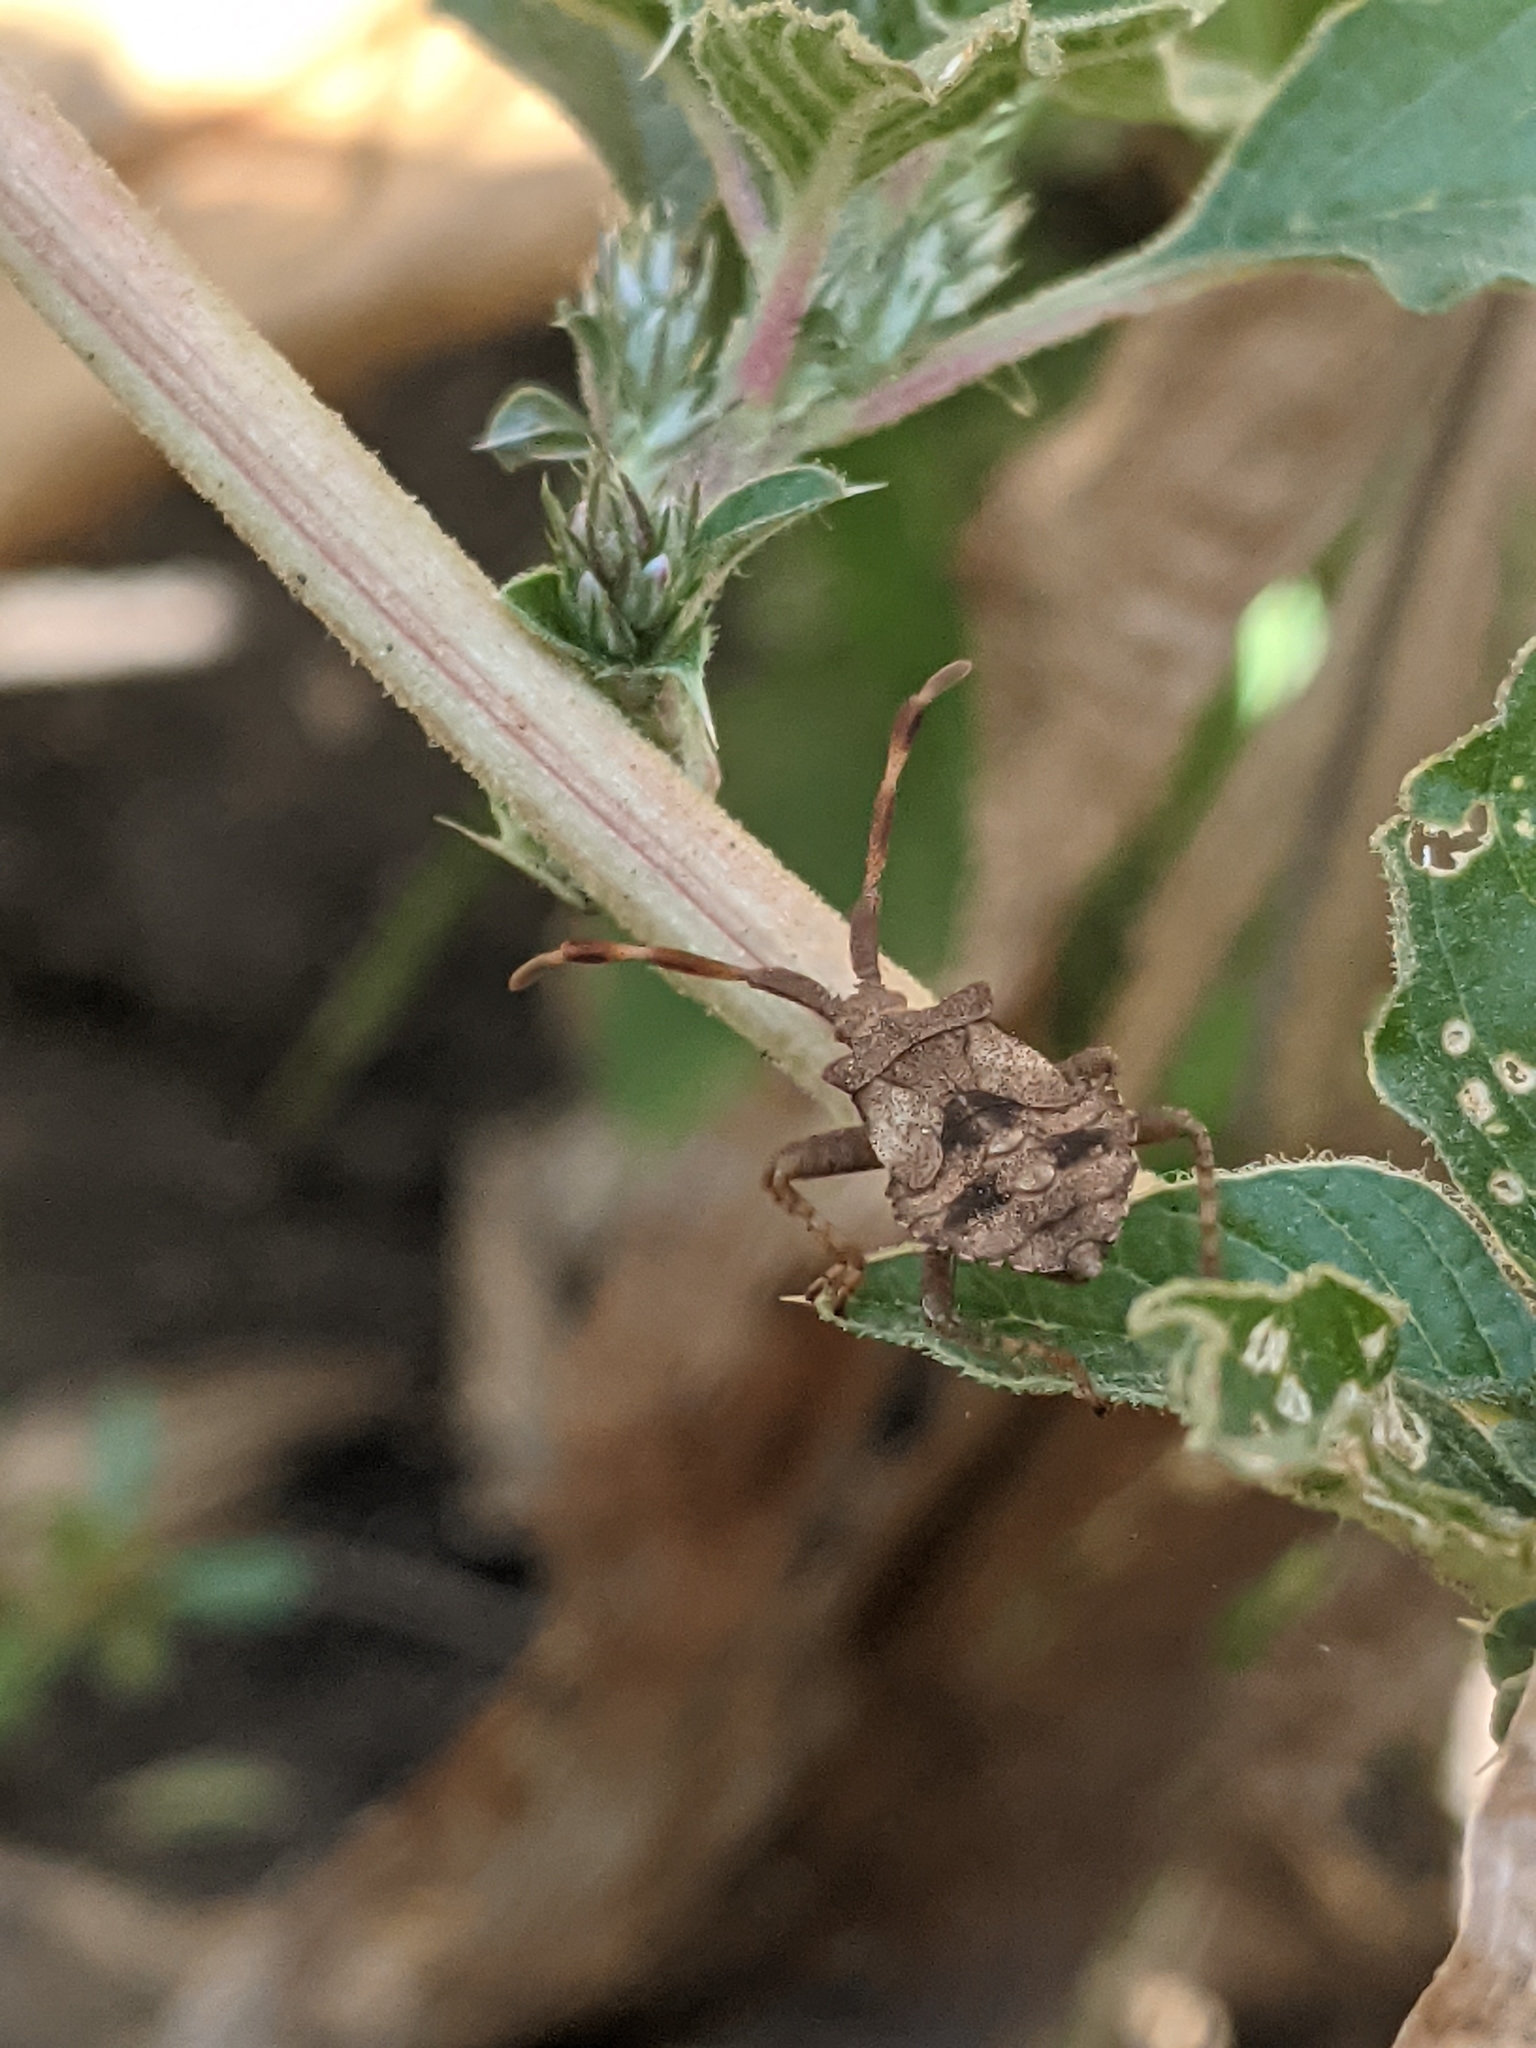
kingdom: Animalia
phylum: Arthropoda
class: Insecta
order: Hemiptera
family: Coreidae
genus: Coreus
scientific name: Coreus marginatus
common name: Dock bug
